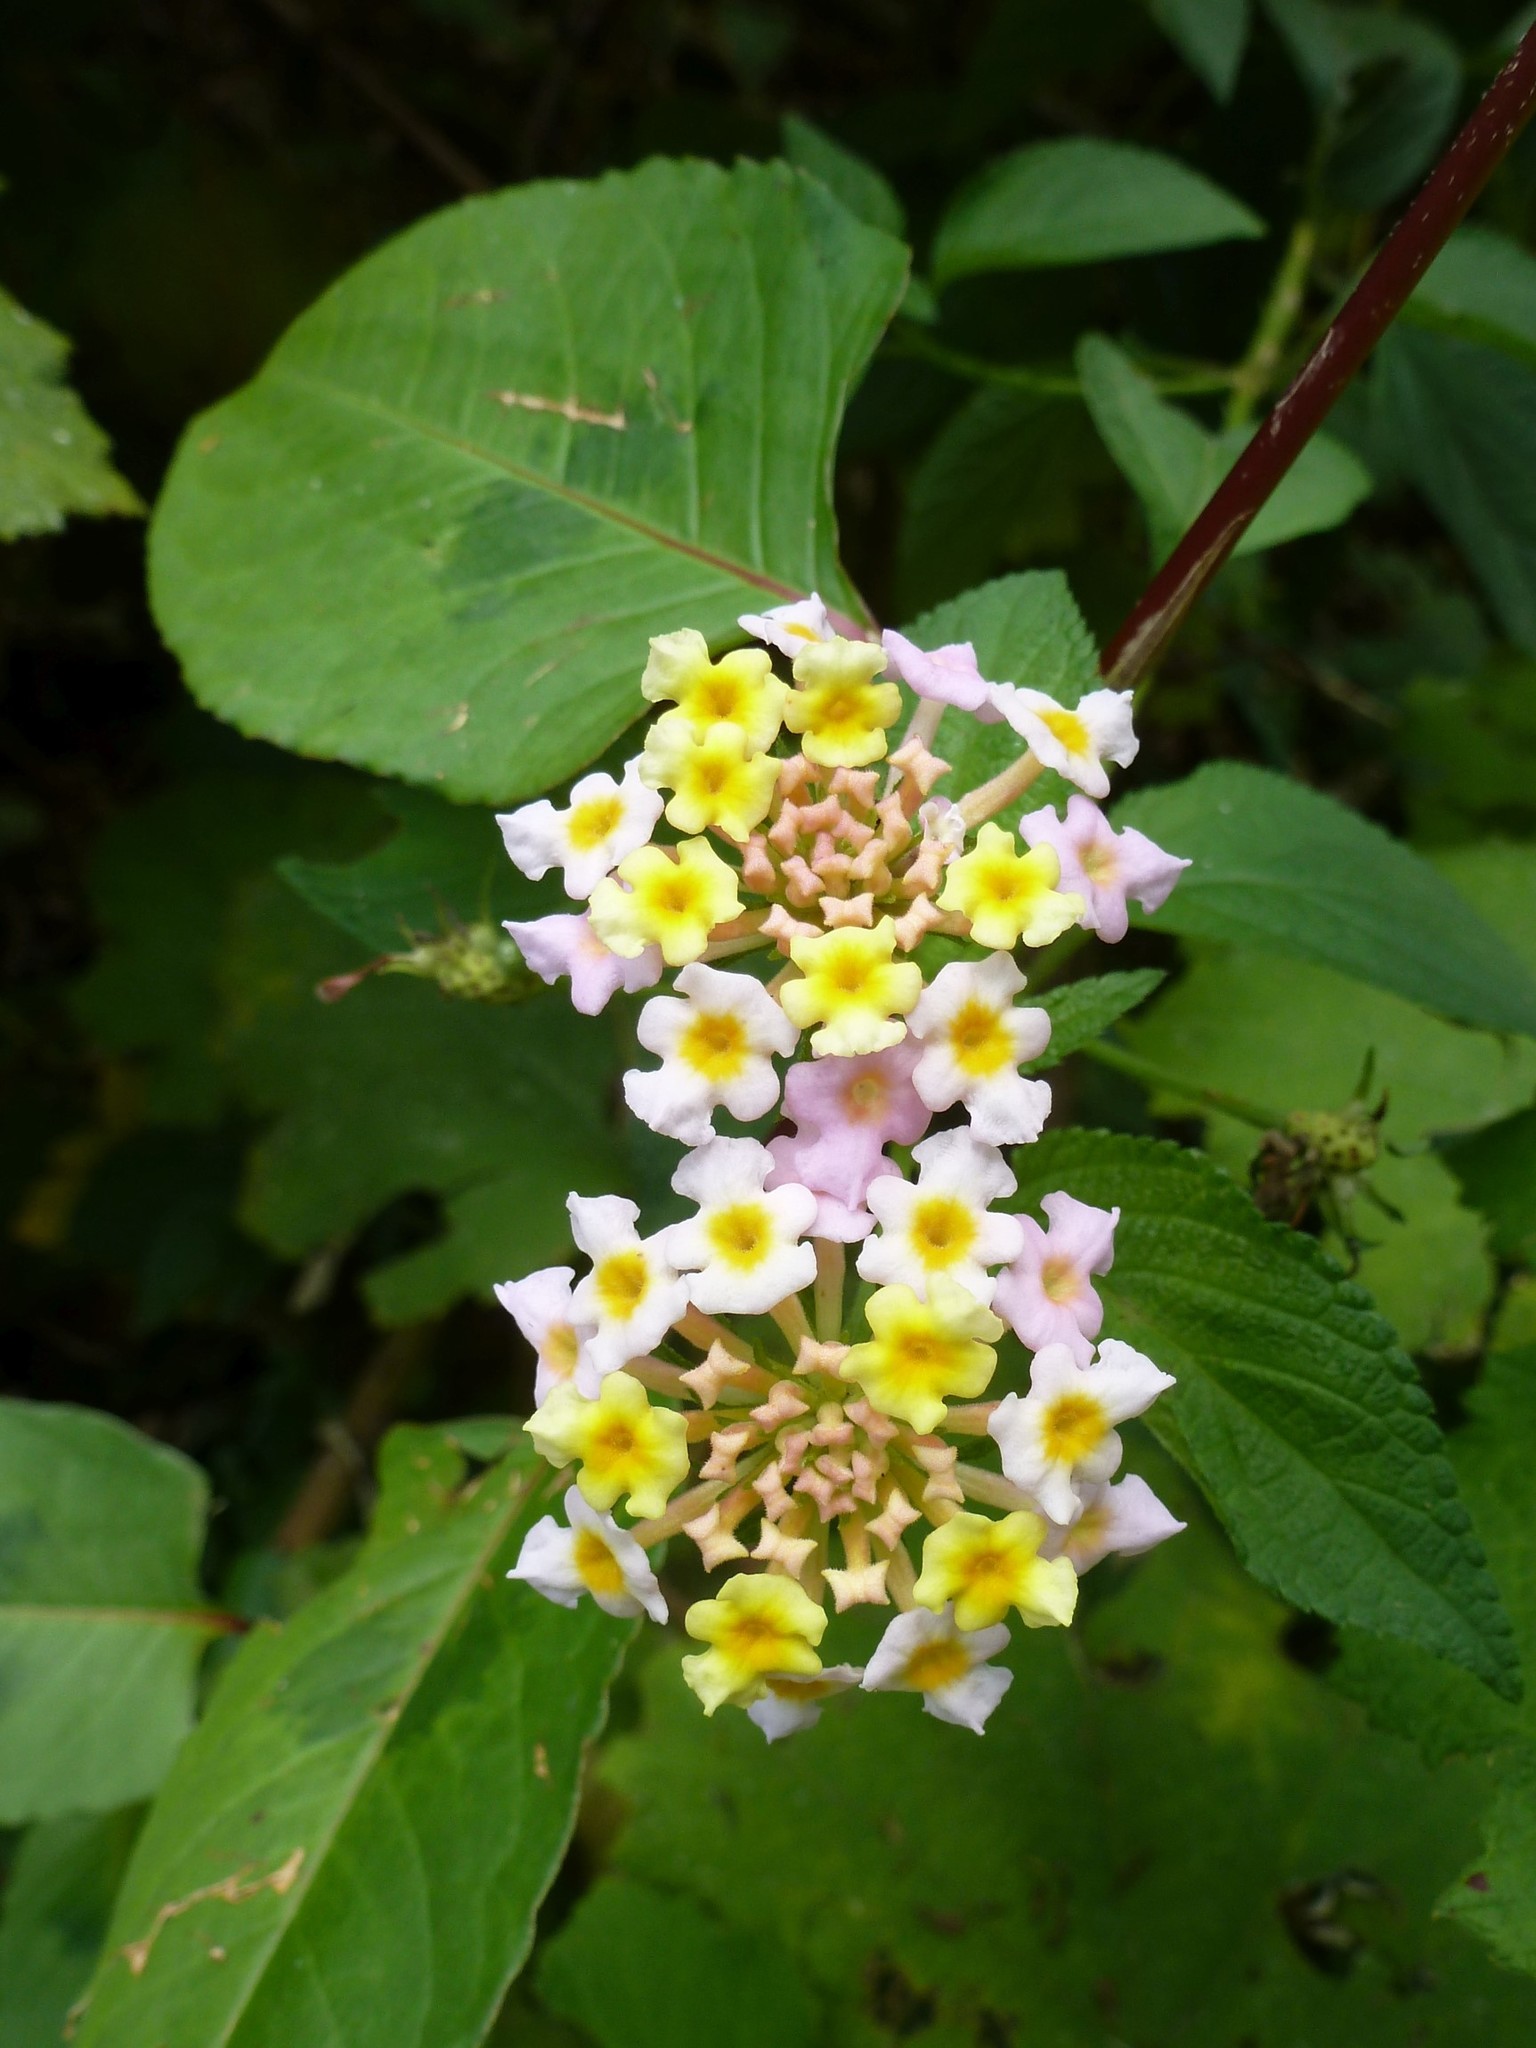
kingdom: Plantae
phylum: Tracheophyta
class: Magnoliopsida
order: Lamiales
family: Verbenaceae
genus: Lantana
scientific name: Lantana camara
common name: Lantana
